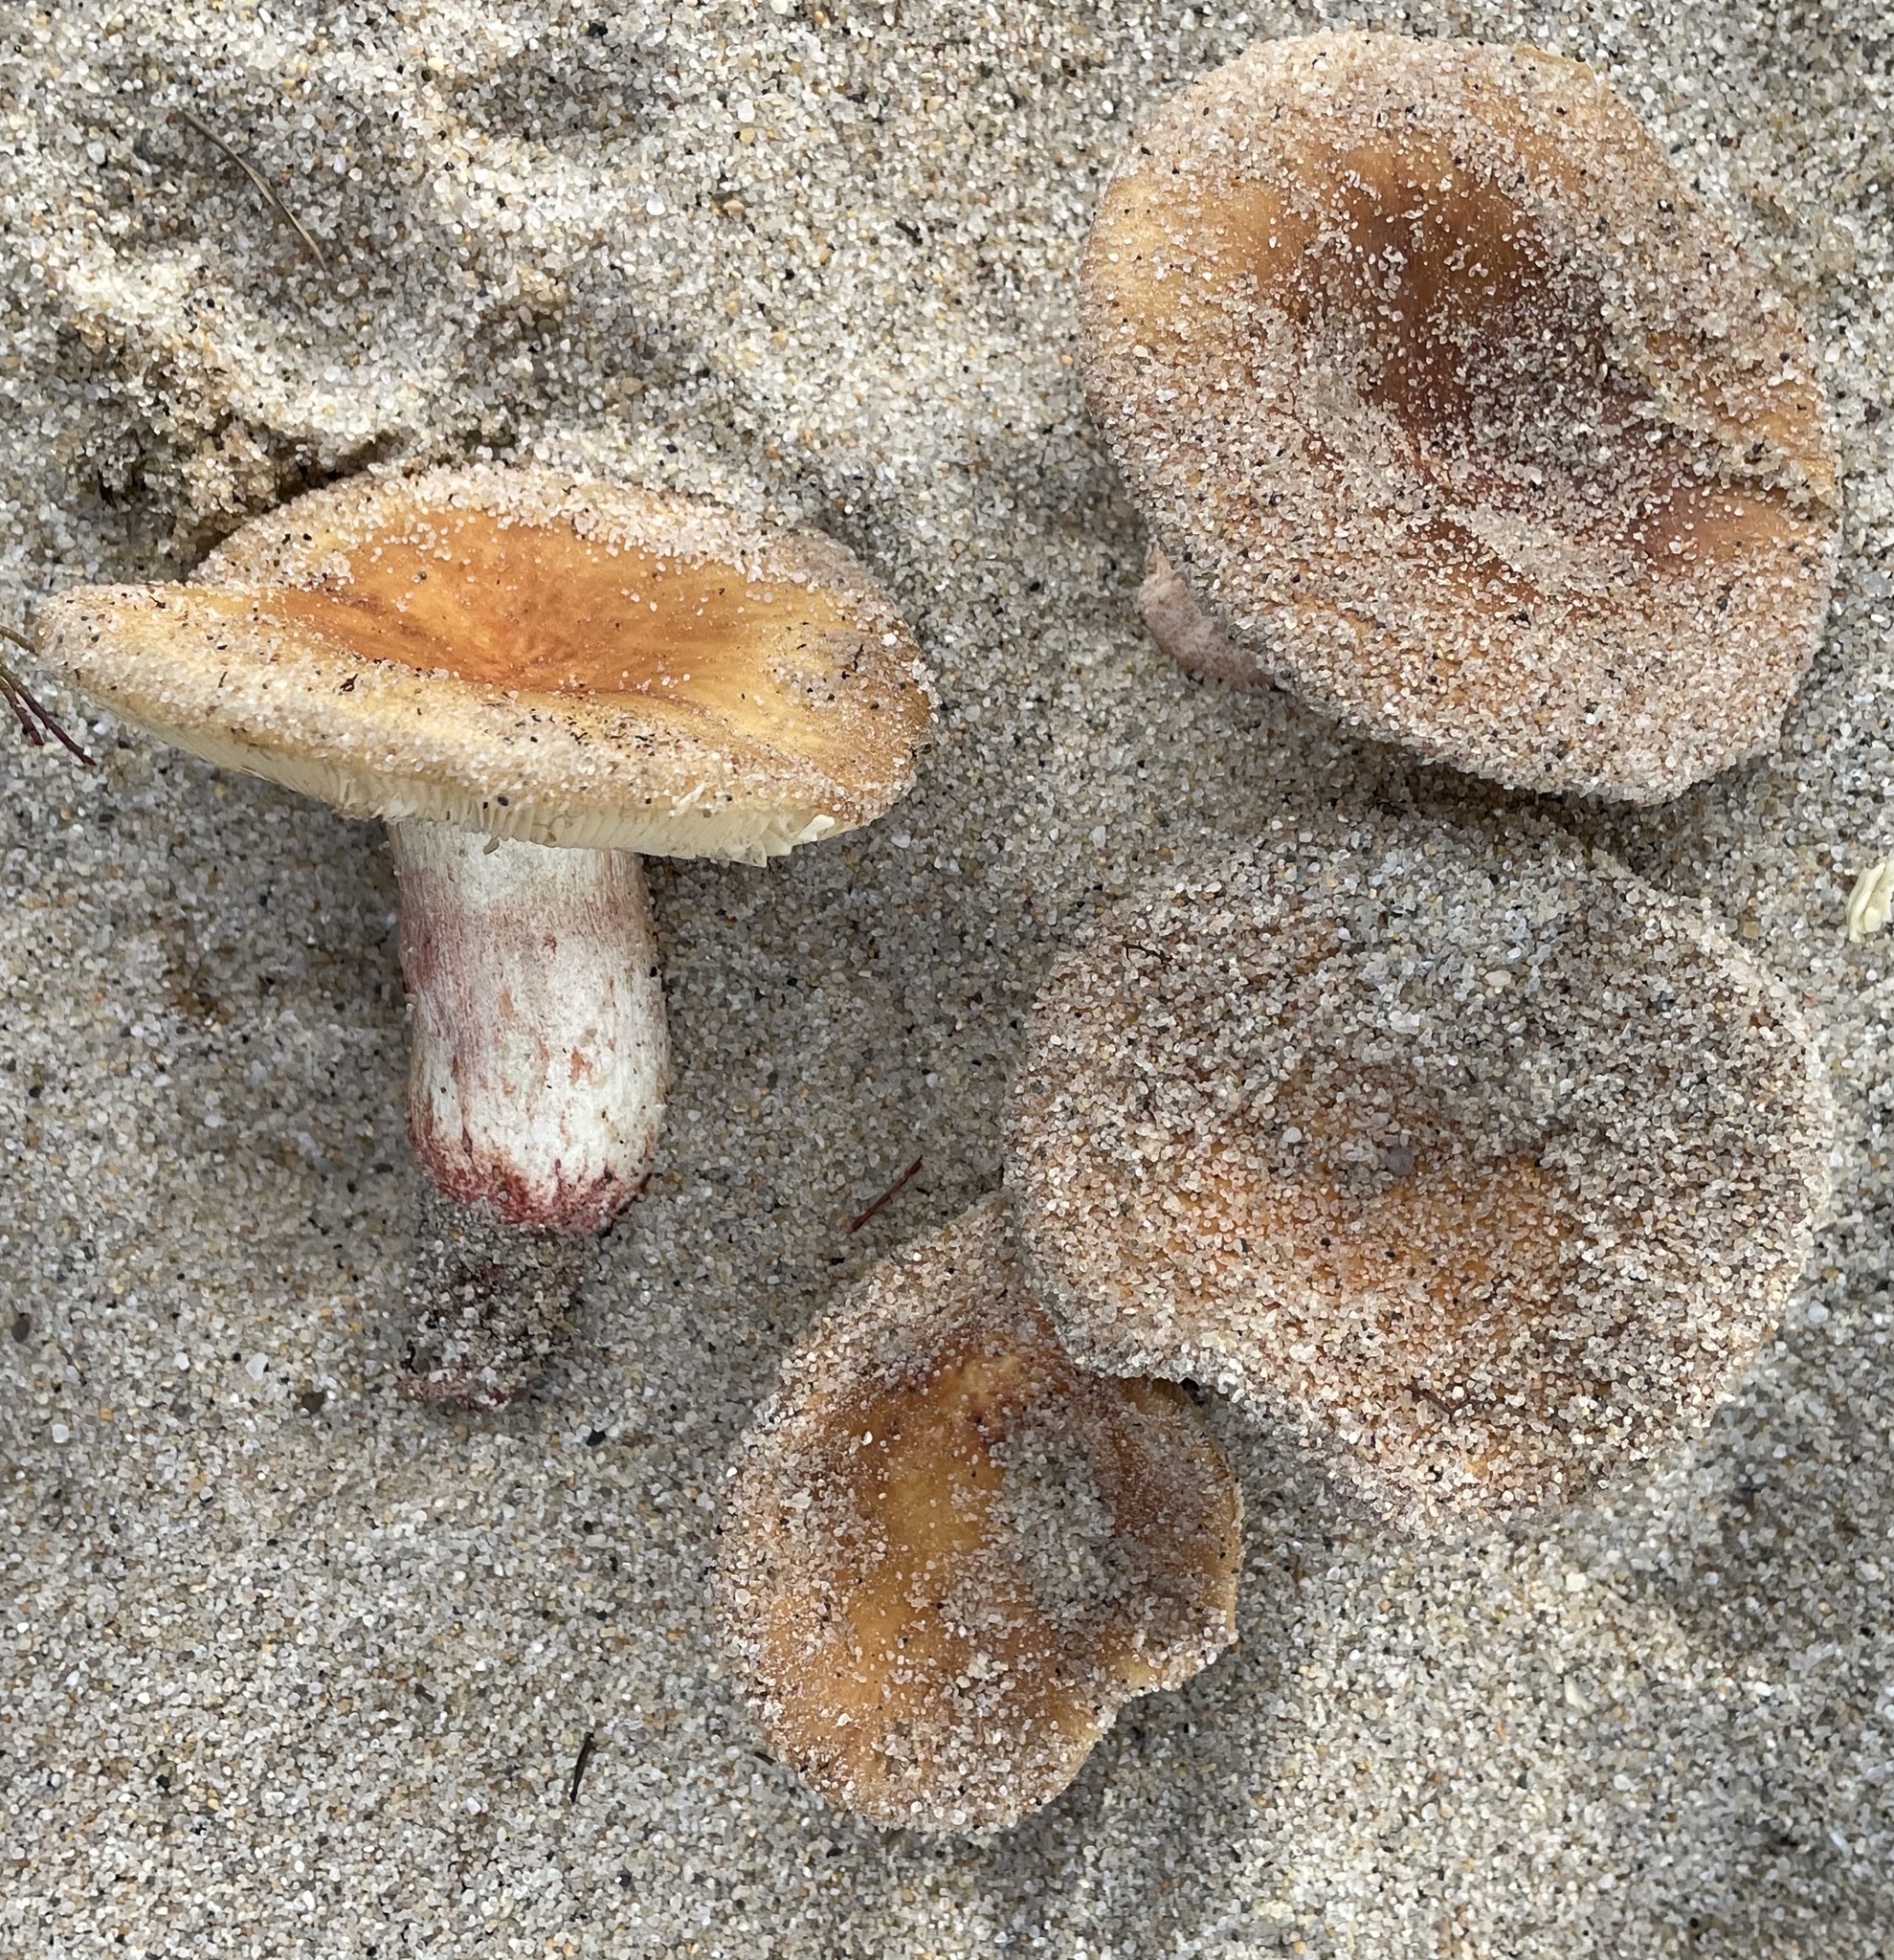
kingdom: Fungi
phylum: Basidiomycota
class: Agaricomycetes
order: Russulales
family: Russulaceae
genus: Russula
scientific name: Russula ventricosipes
